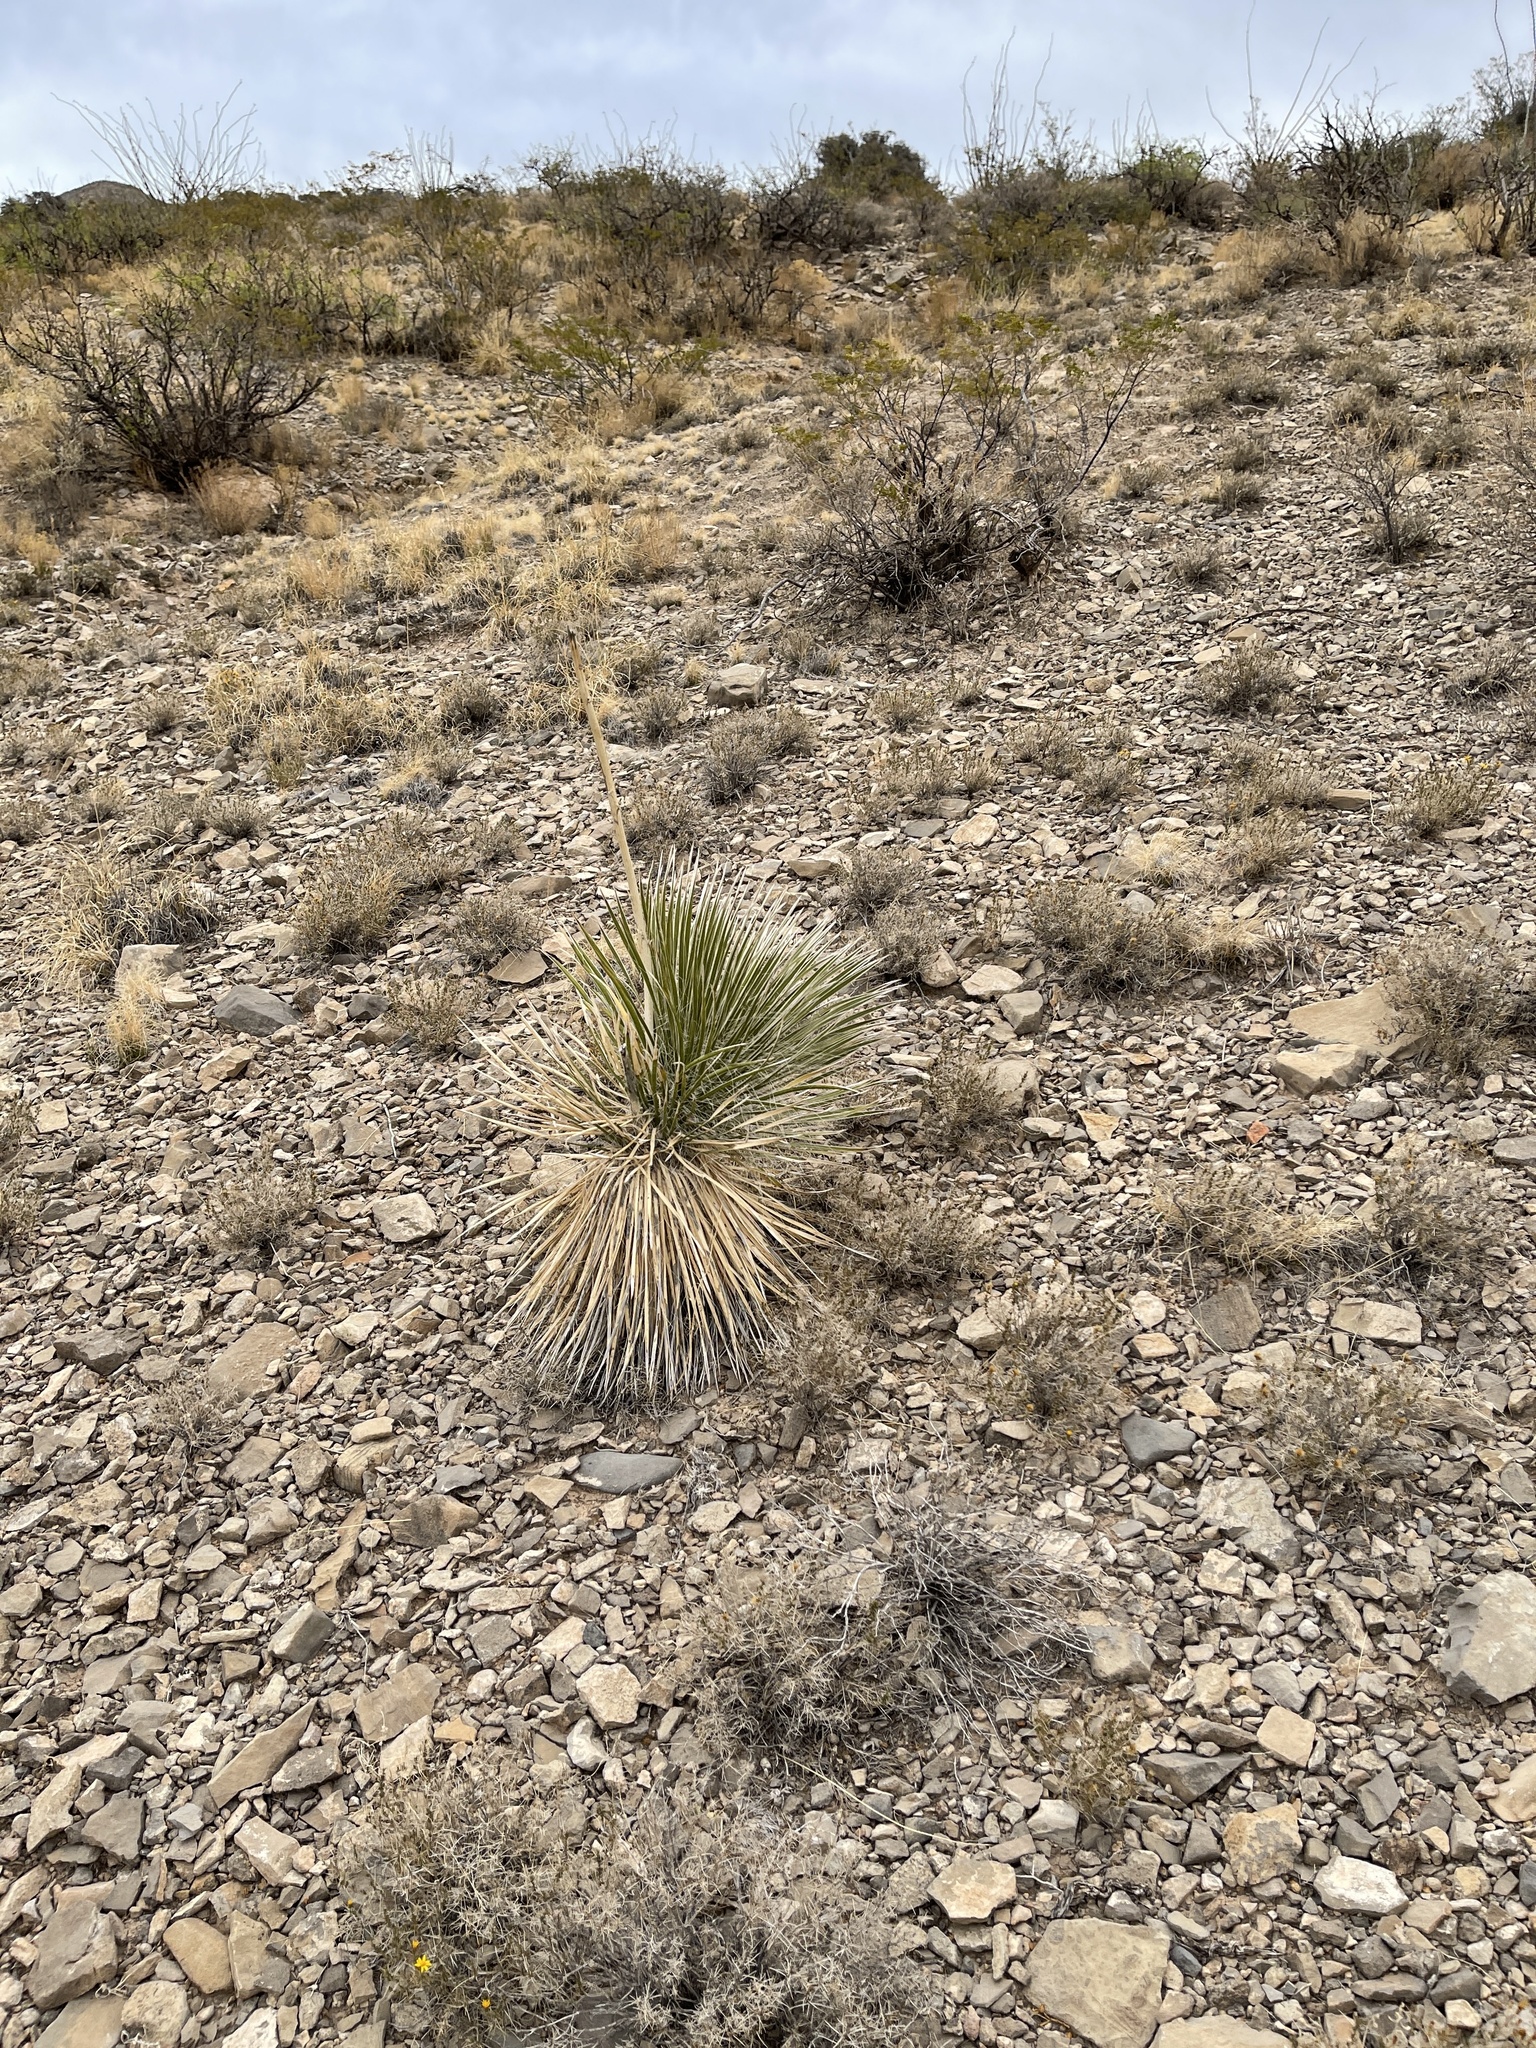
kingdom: Plantae
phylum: Tracheophyta
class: Liliopsida
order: Asparagales
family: Asparagaceae
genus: Yucca
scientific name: Yucca elata
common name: Palmella
